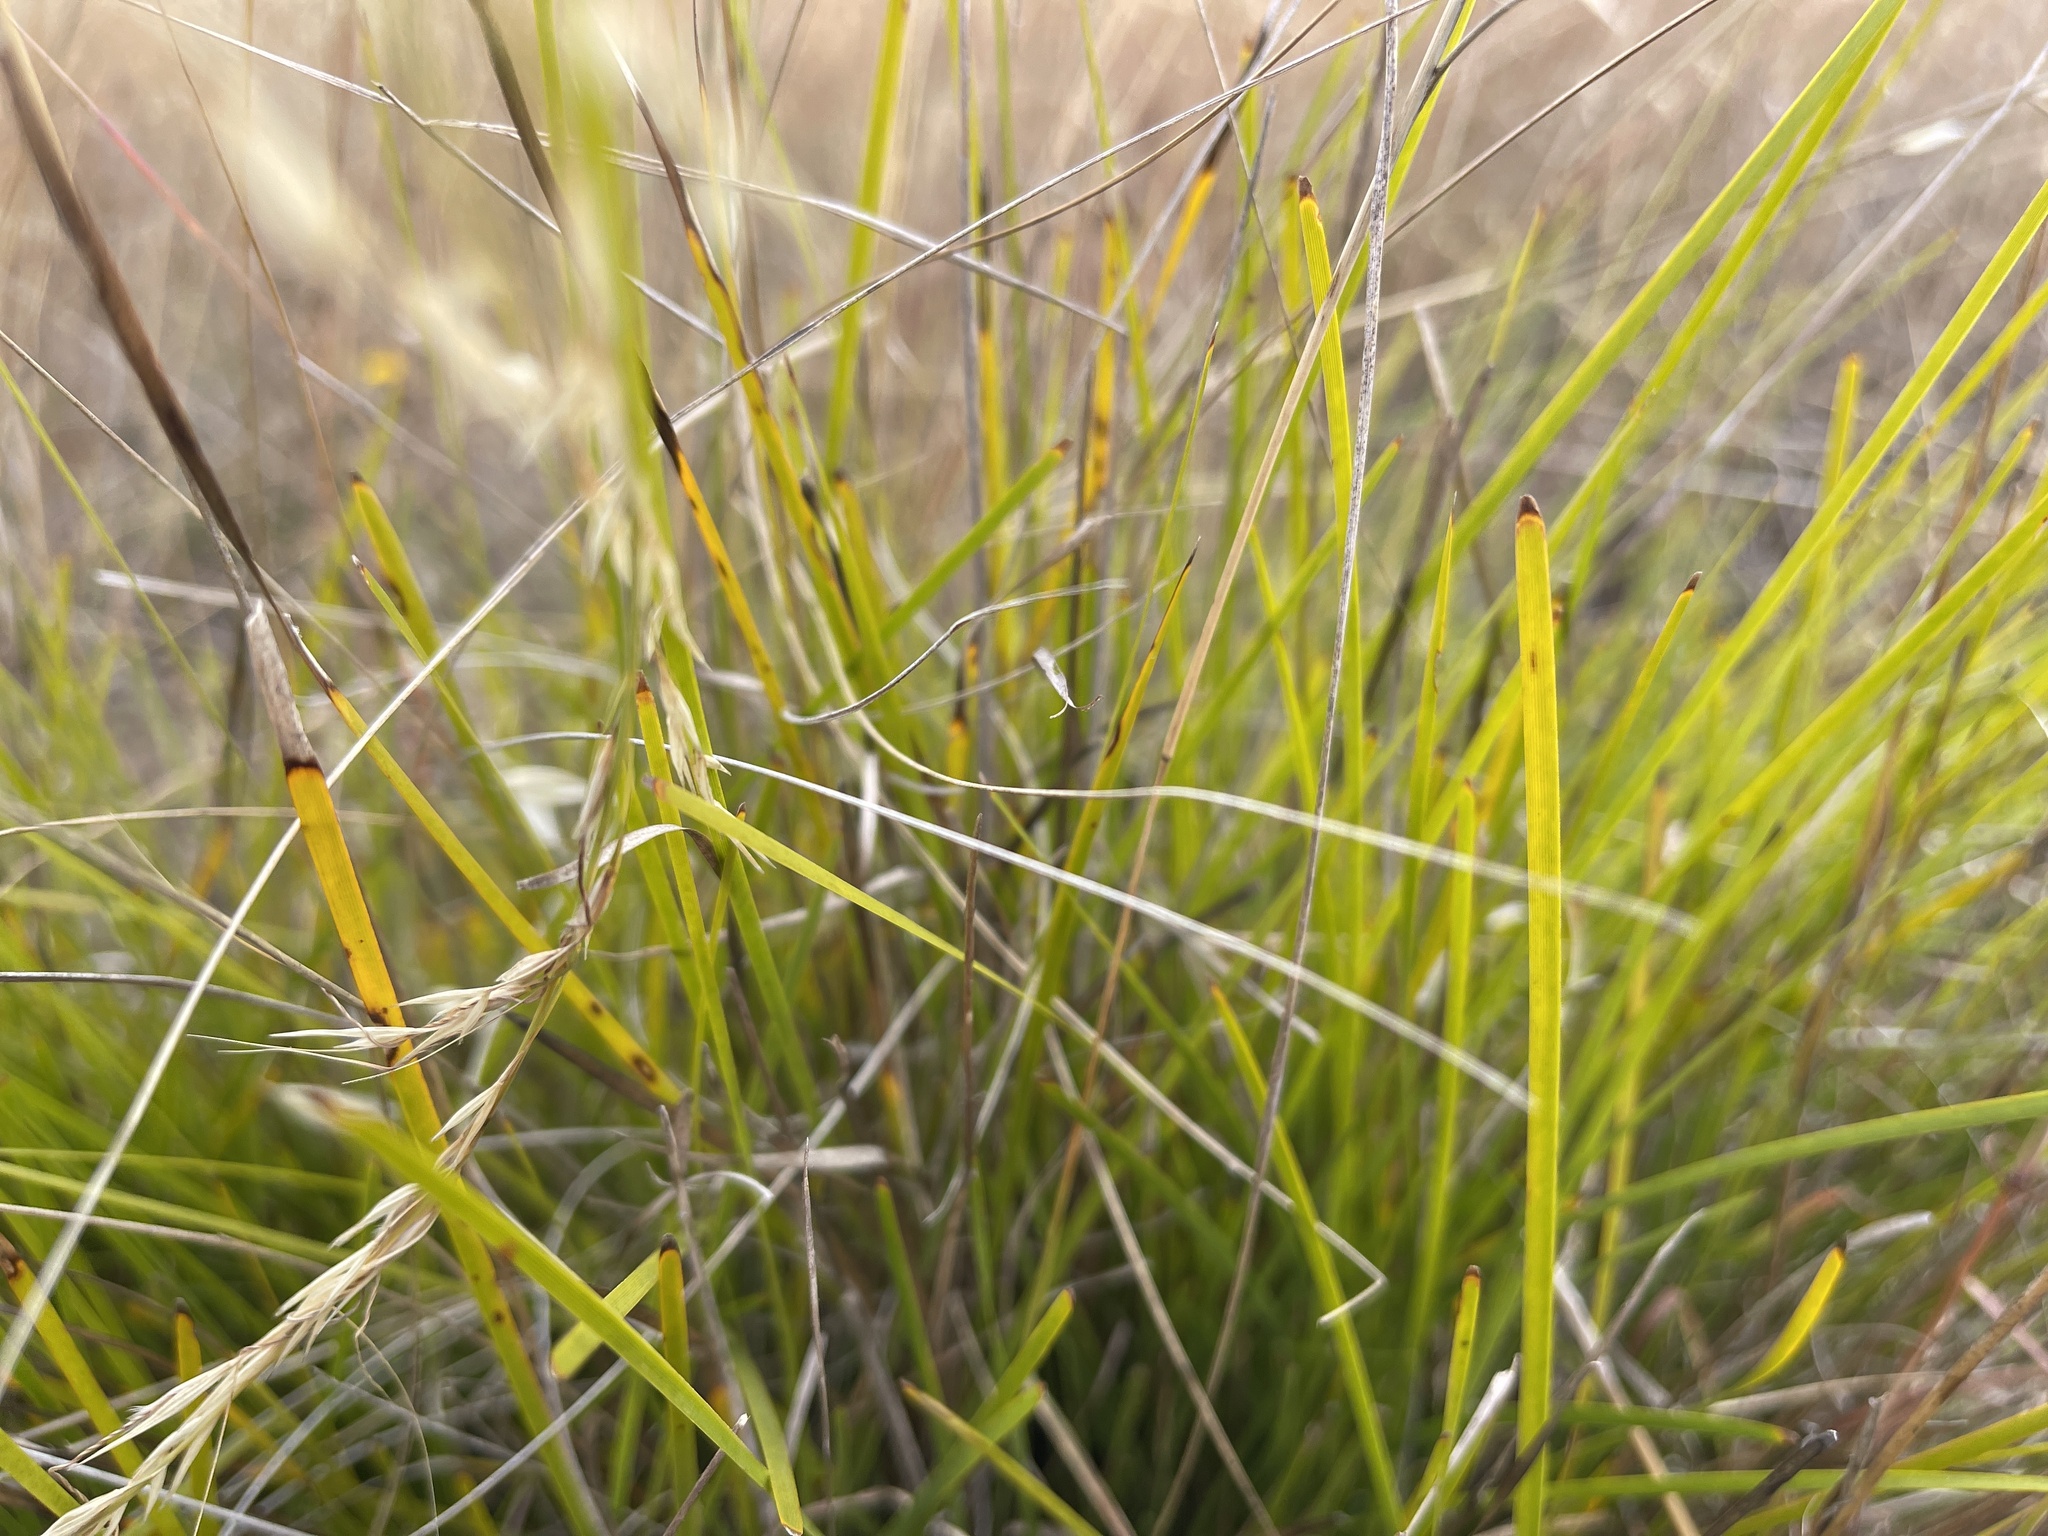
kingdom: Plantae
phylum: Tracheophyta
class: Liliopsida
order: Asparagales
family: Asparagaceae
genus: Lomandra
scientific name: Lomandra micrantha
